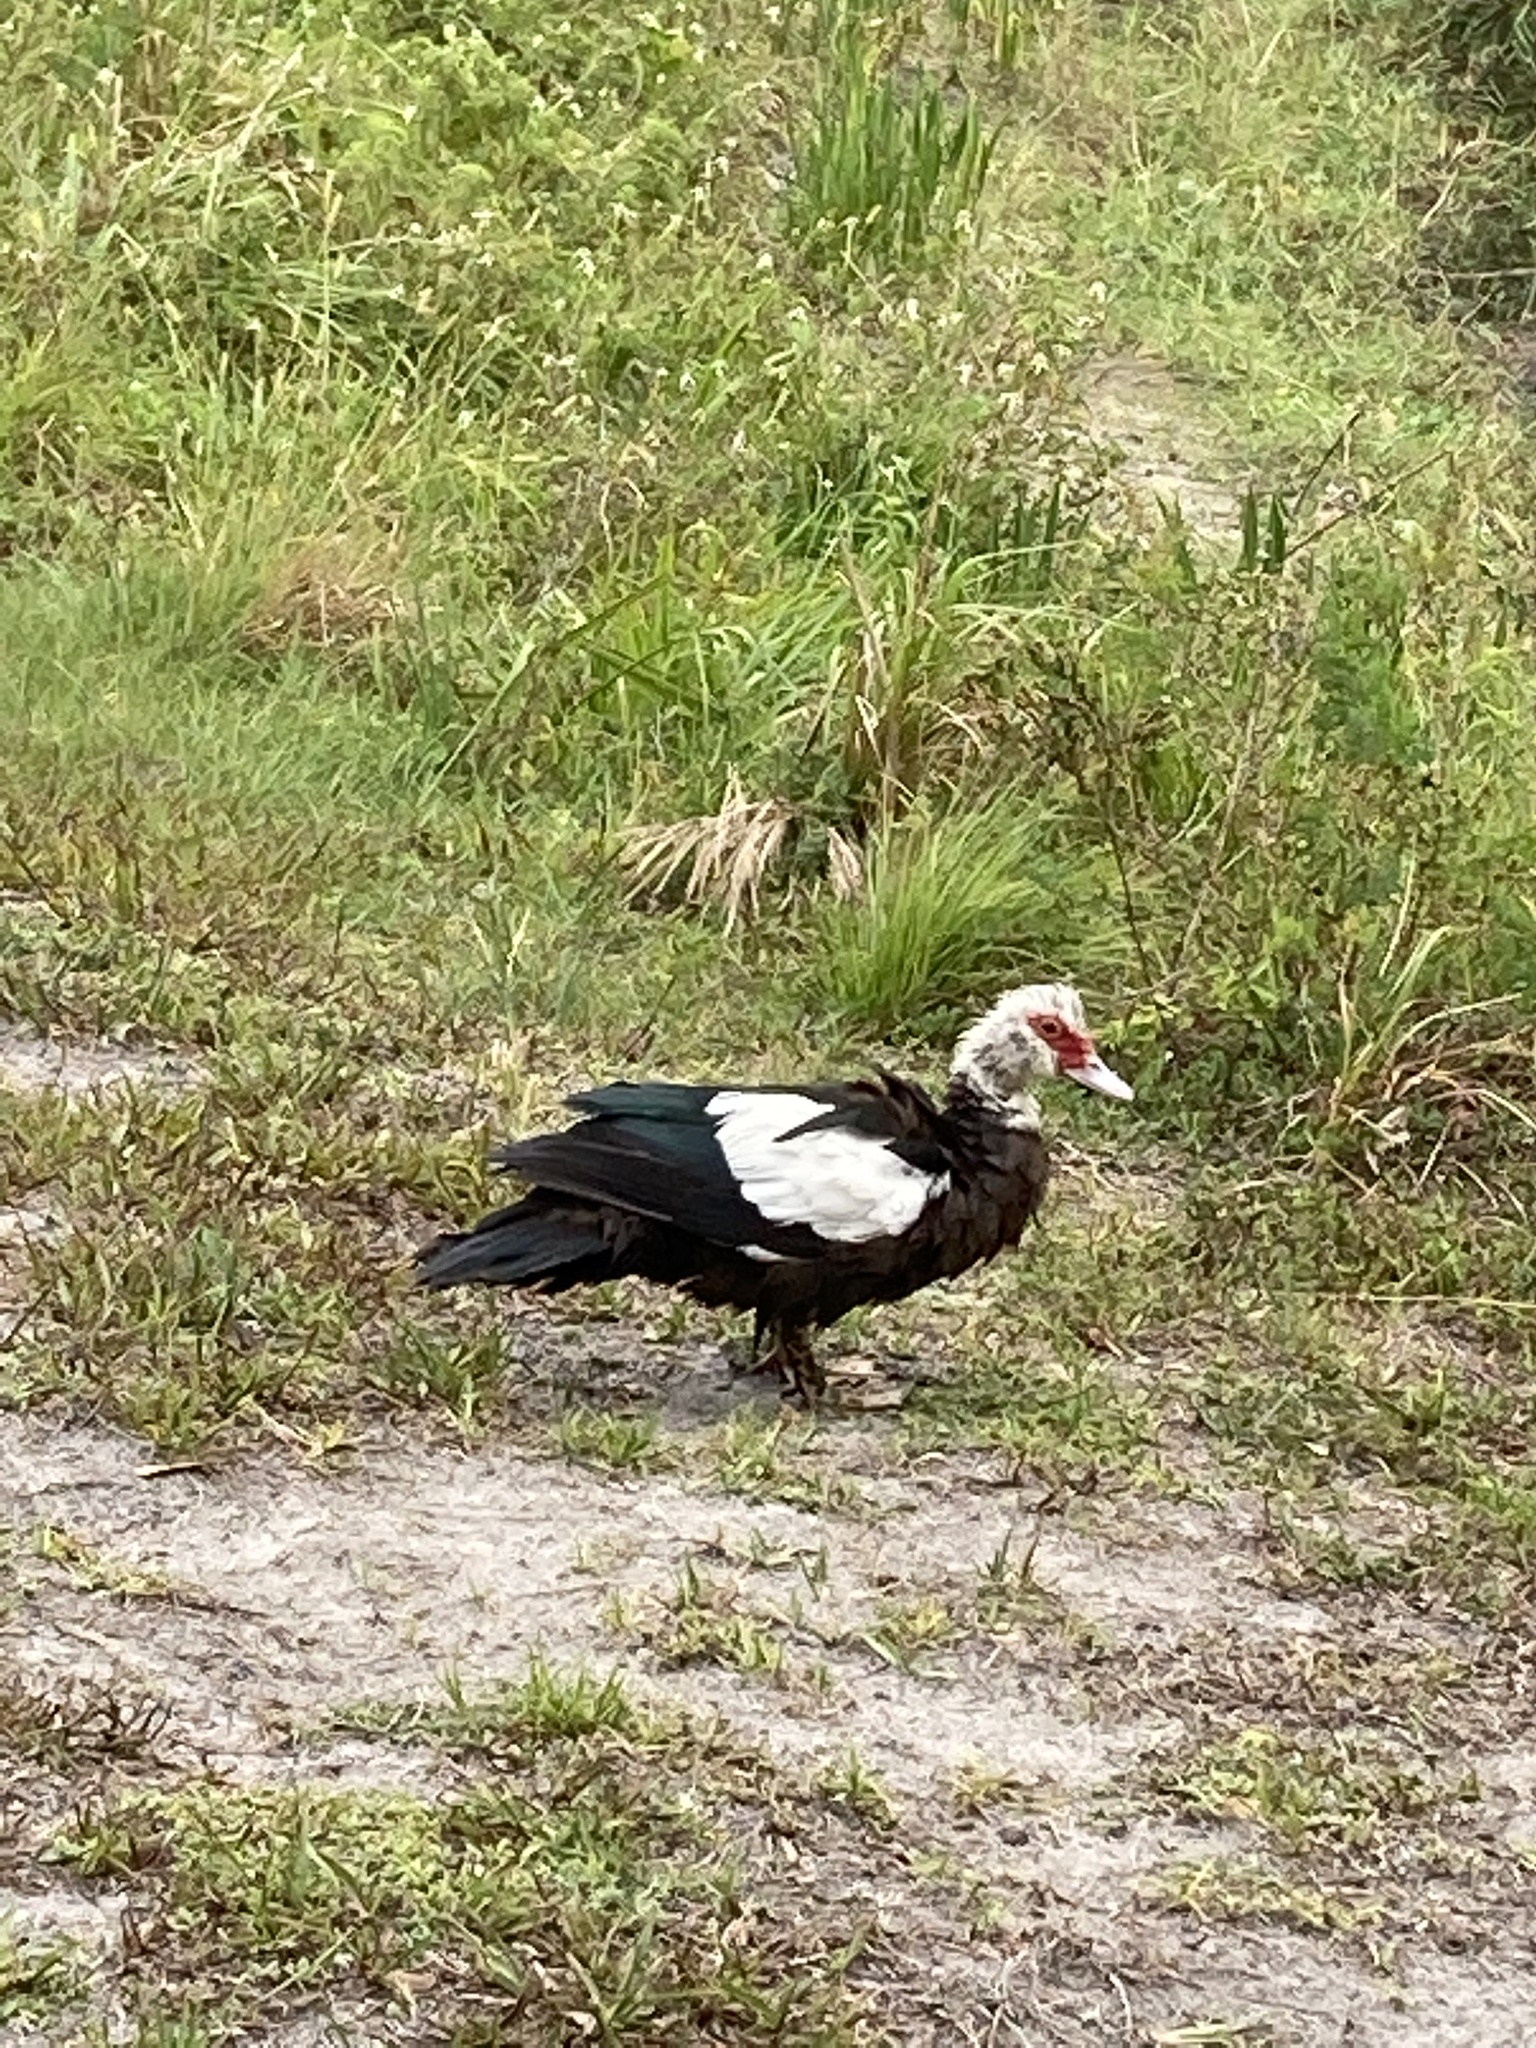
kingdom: Animalia
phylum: Chordata
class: Aves
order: Anseriformes
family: Anatidae
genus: Cairina
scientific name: Cairina moschata
